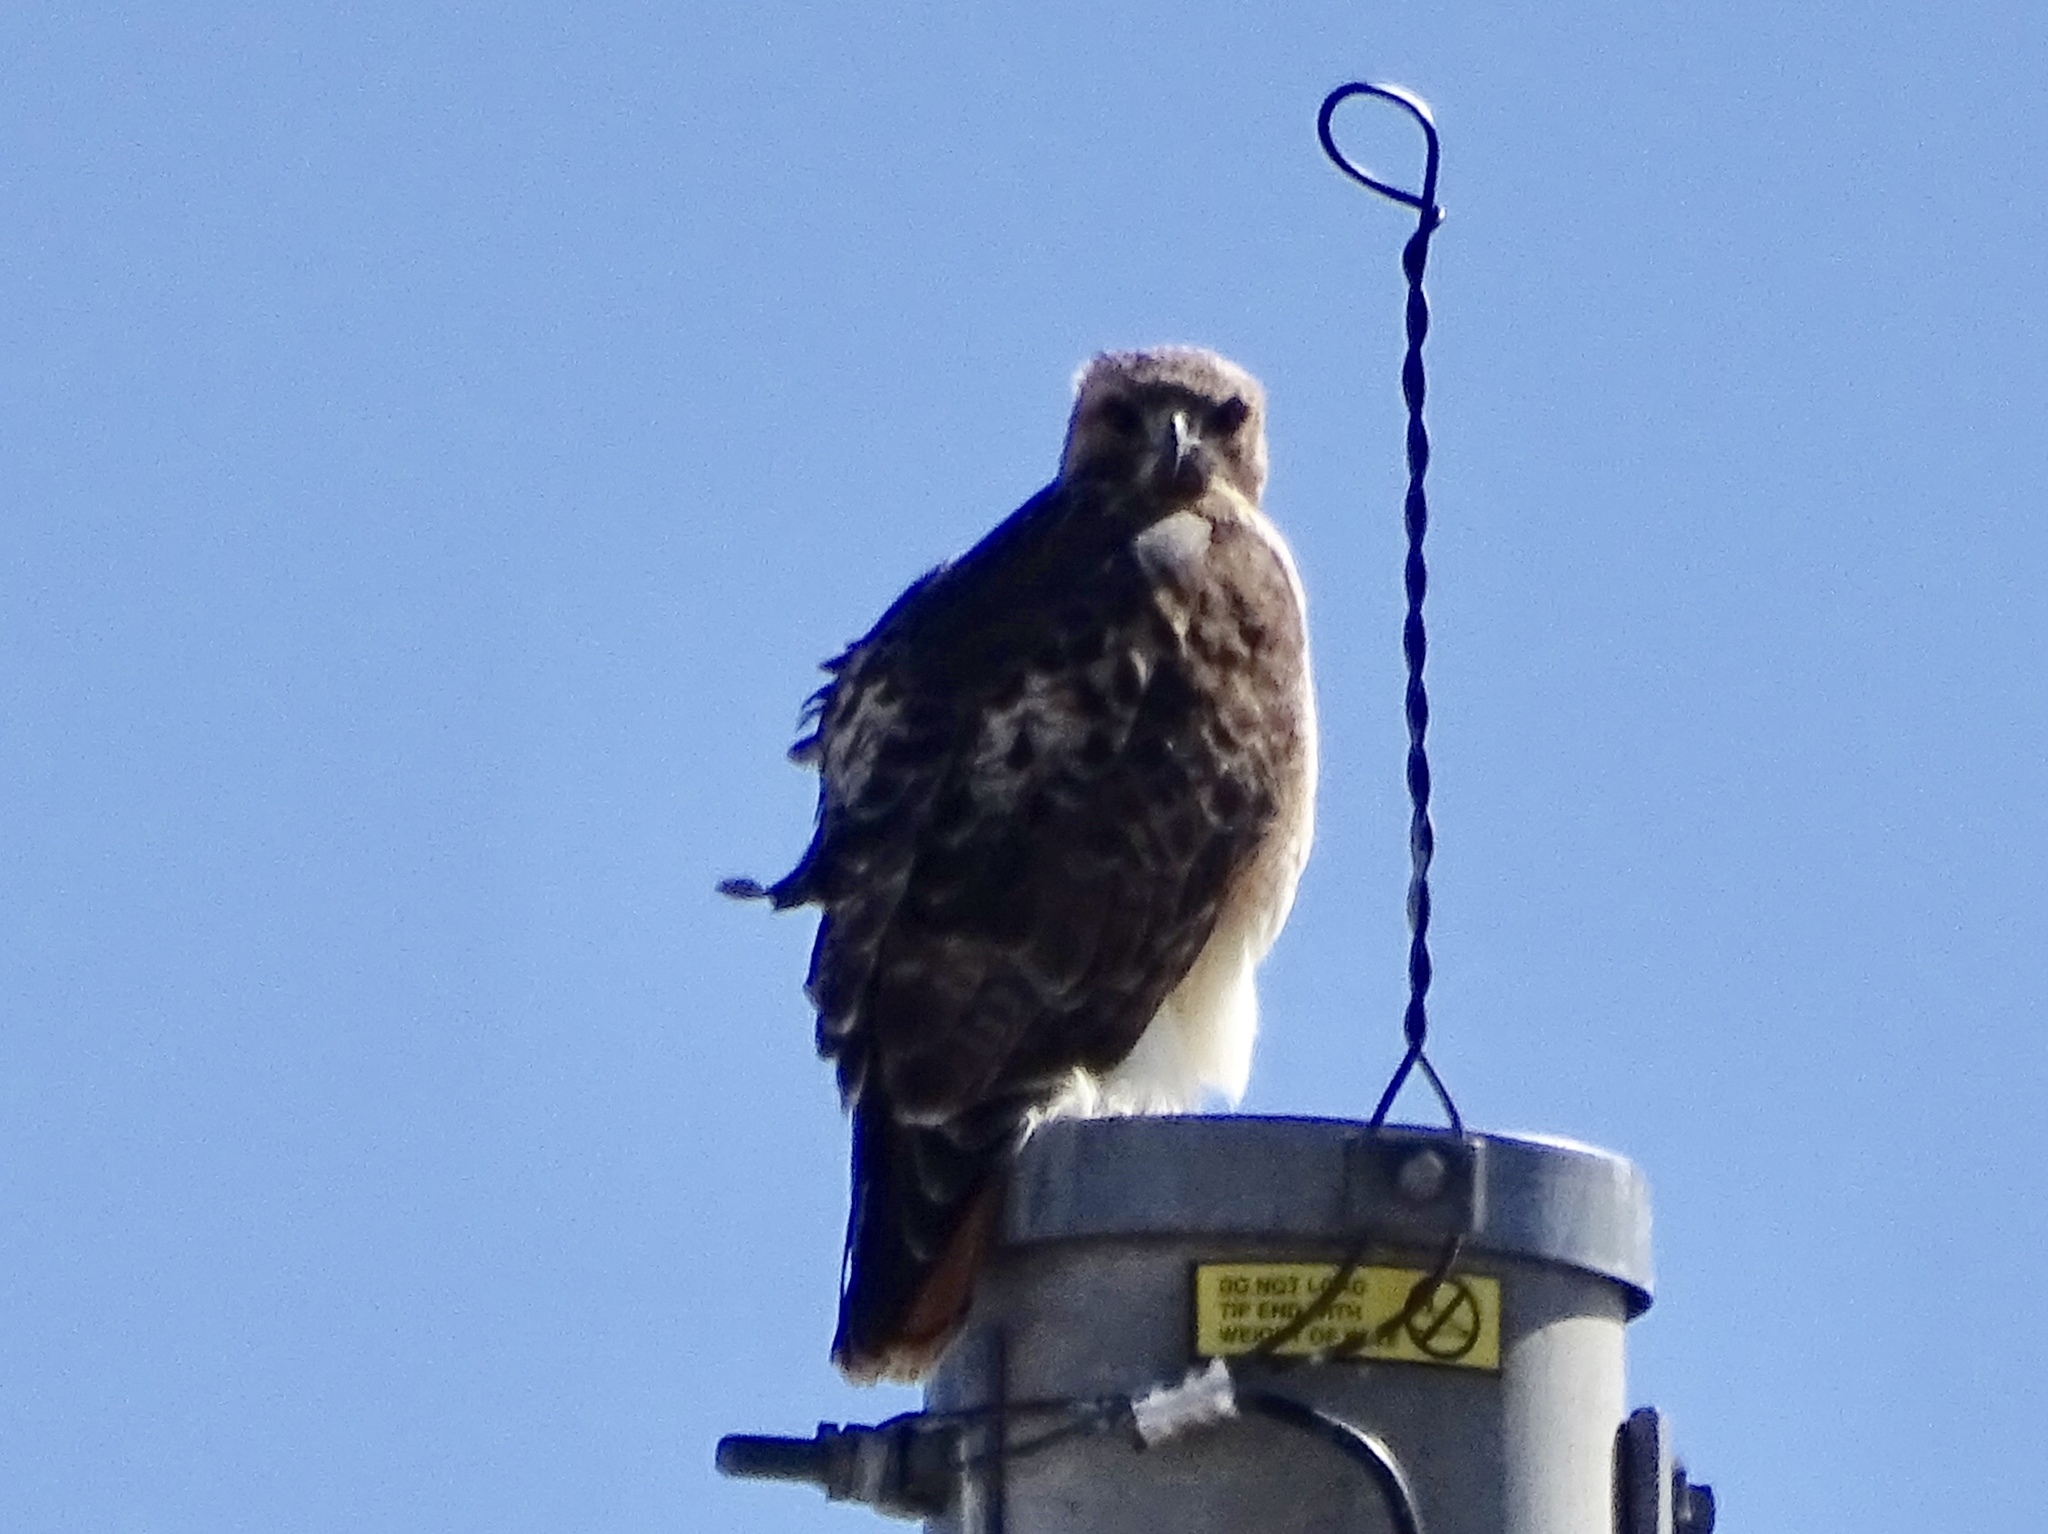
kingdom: Animalia
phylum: Chordata
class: Aves
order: Accipitriformes
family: Accipitridae
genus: Buteo
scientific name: Buteo jamaicensis
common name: Red-tailed hawk
